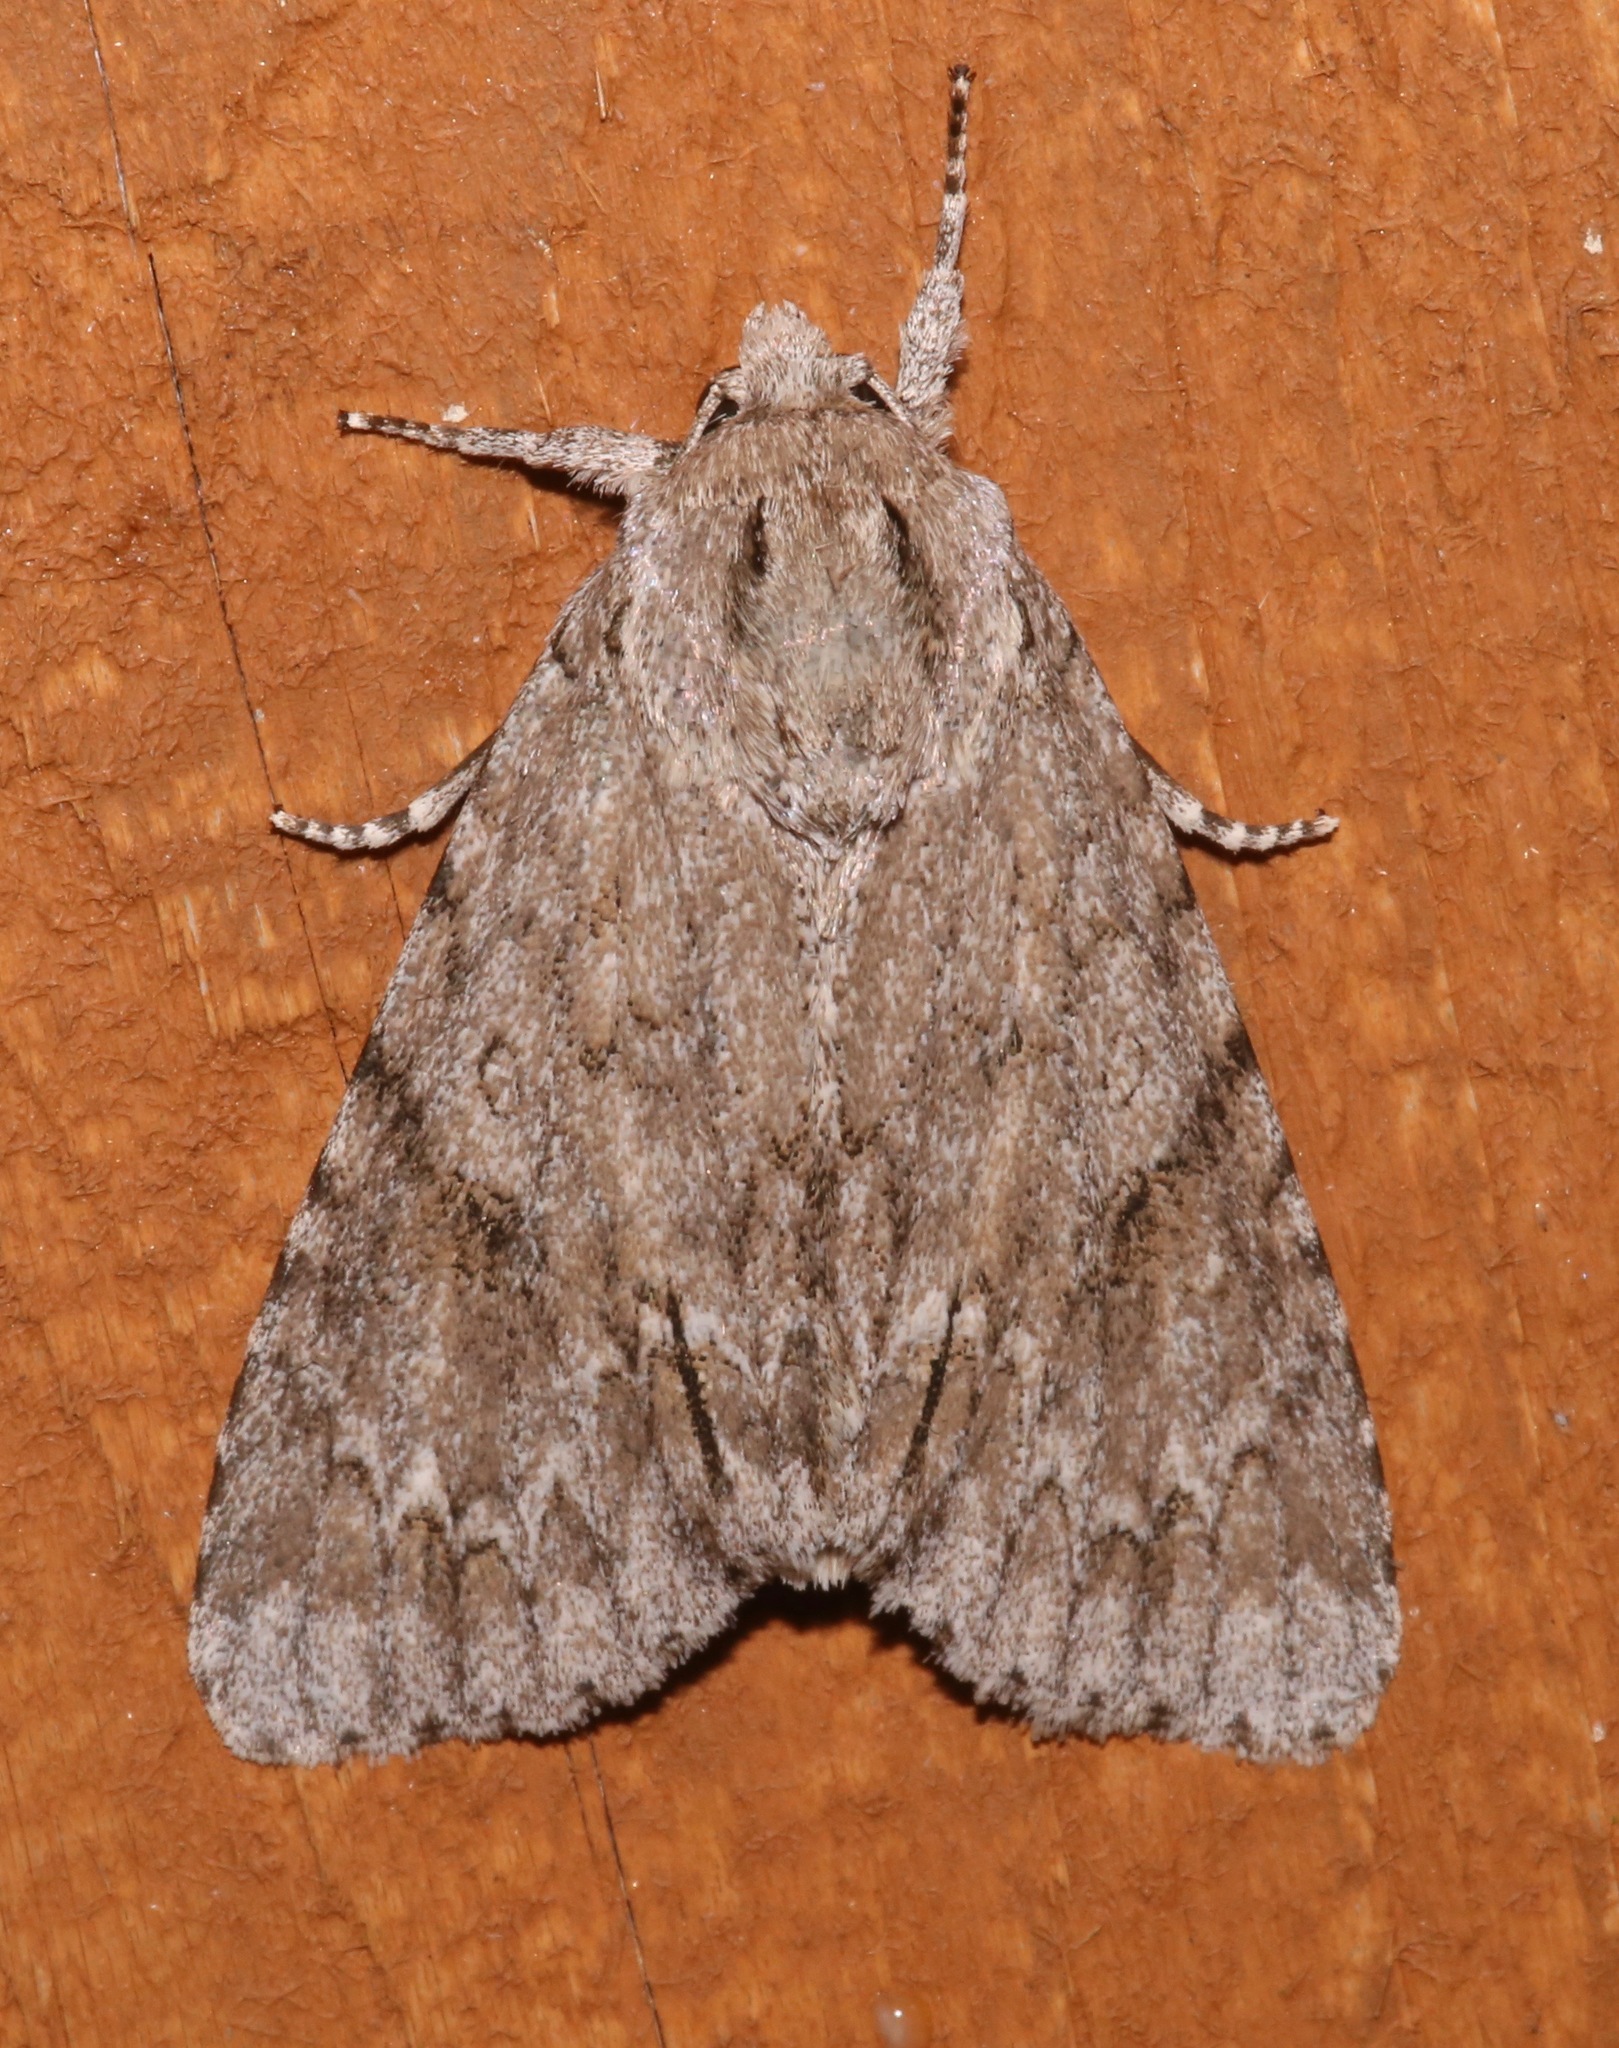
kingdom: Animalia
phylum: Arthropoda
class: Insecta
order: Lepidoptera
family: Noctuidae
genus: Acronicta
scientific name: Acronicta americana
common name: American dagger
